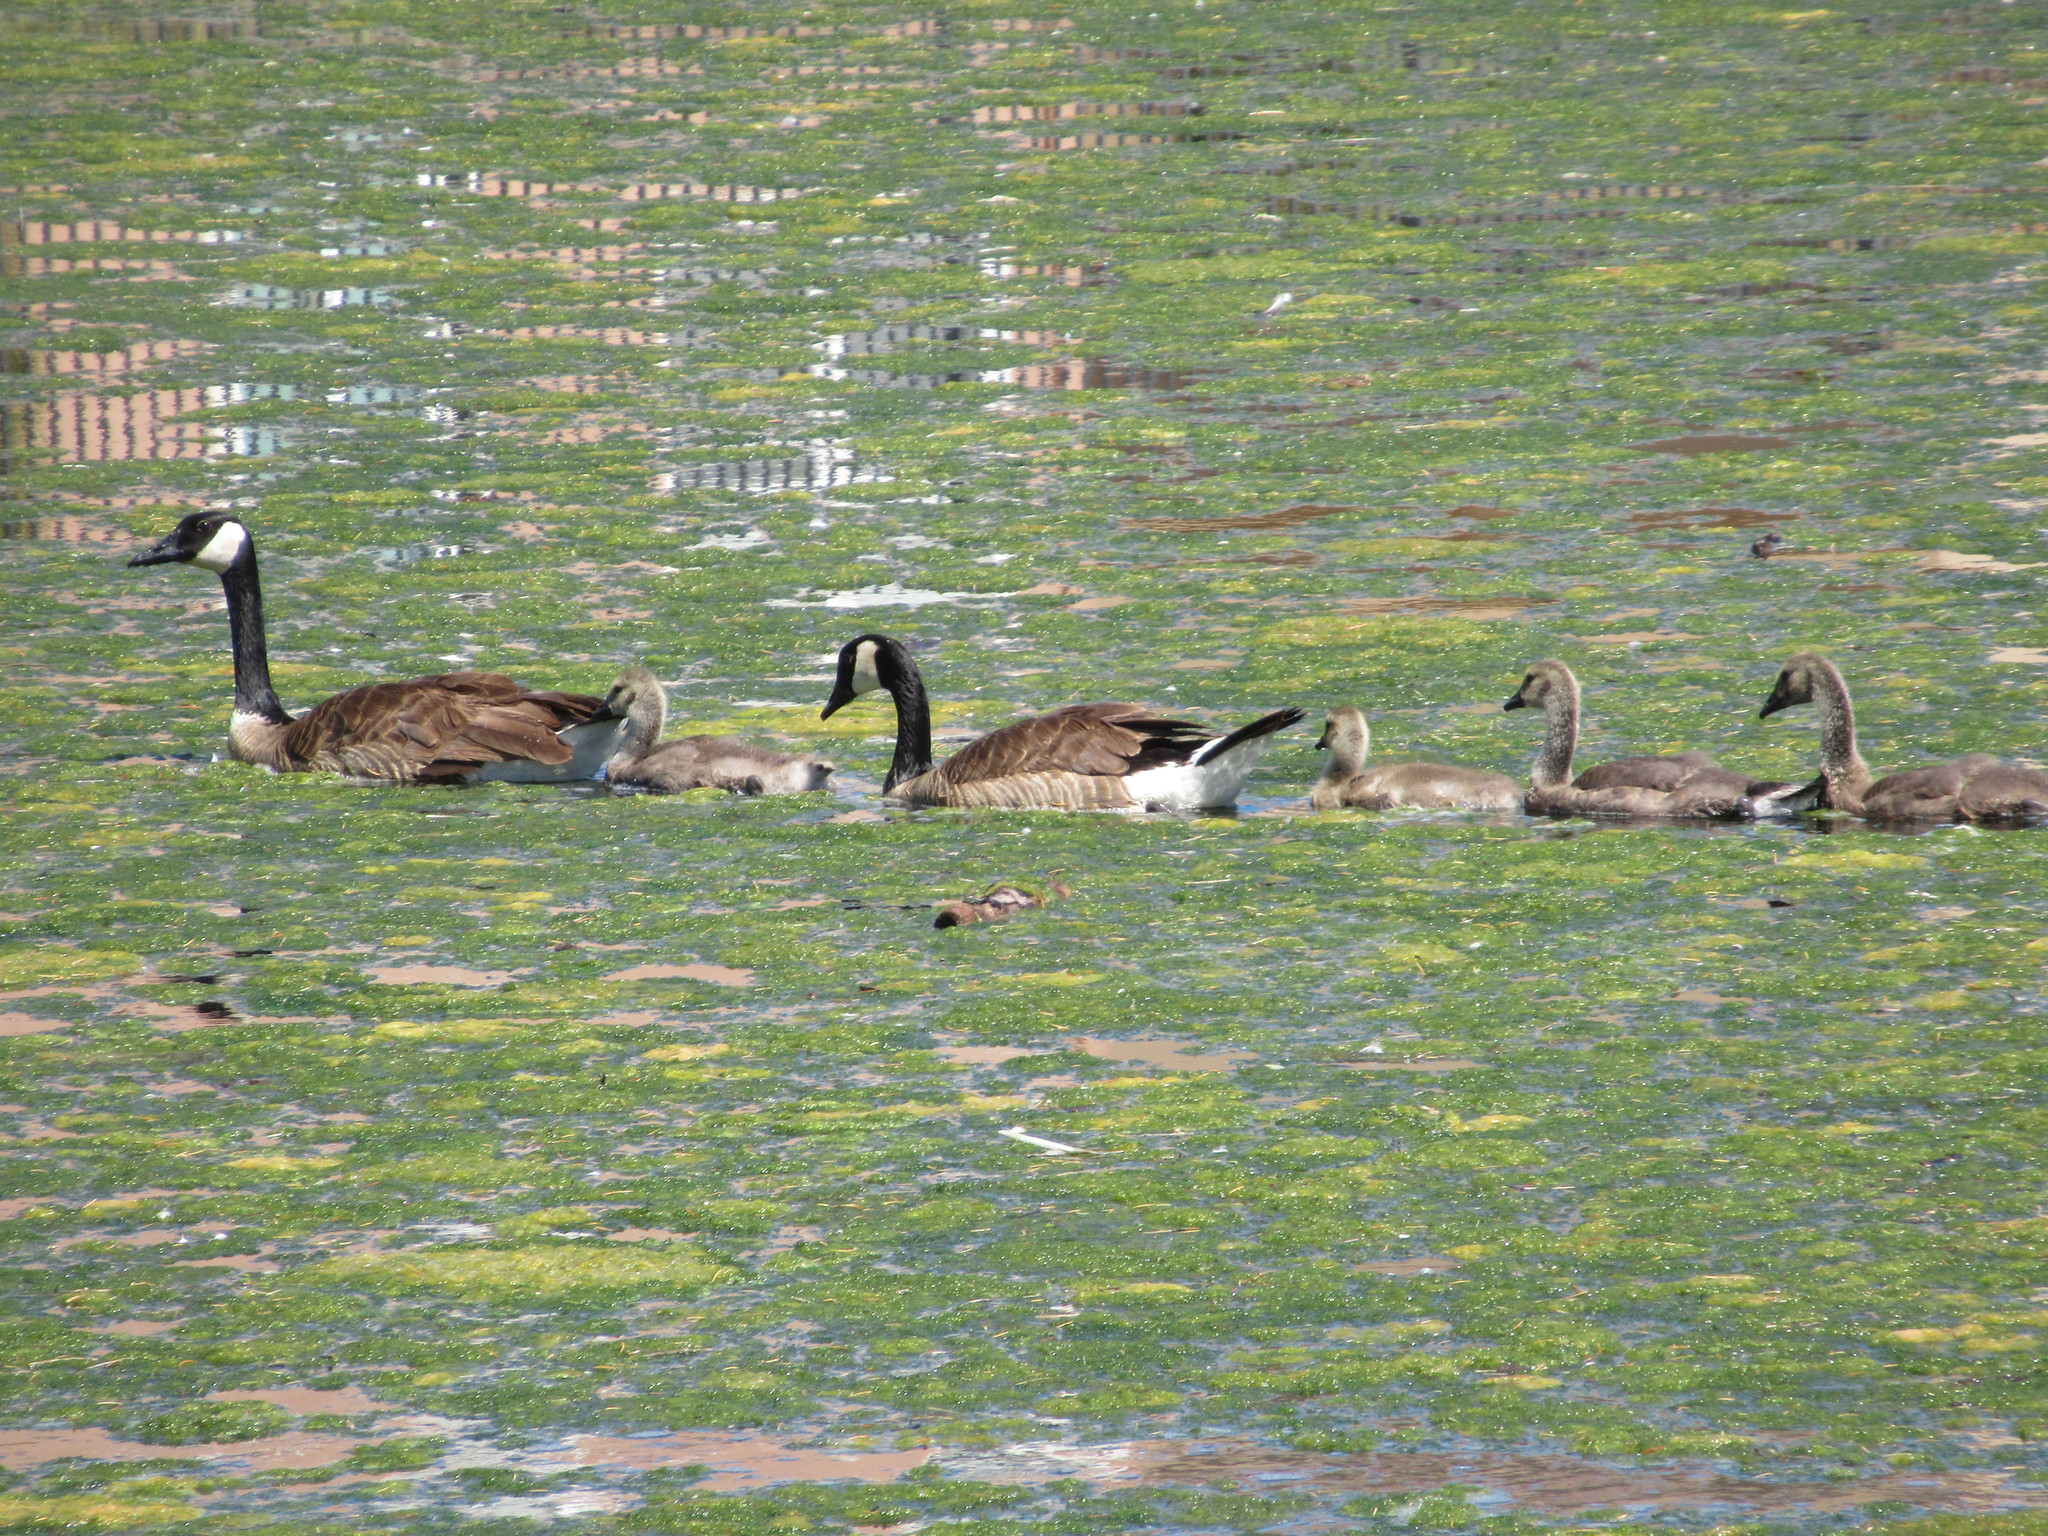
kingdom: Animalia
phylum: Chordata
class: Aves
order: Anseriformes
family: Anatidae
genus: Branta
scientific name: Branta canadensis
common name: Canada goose
